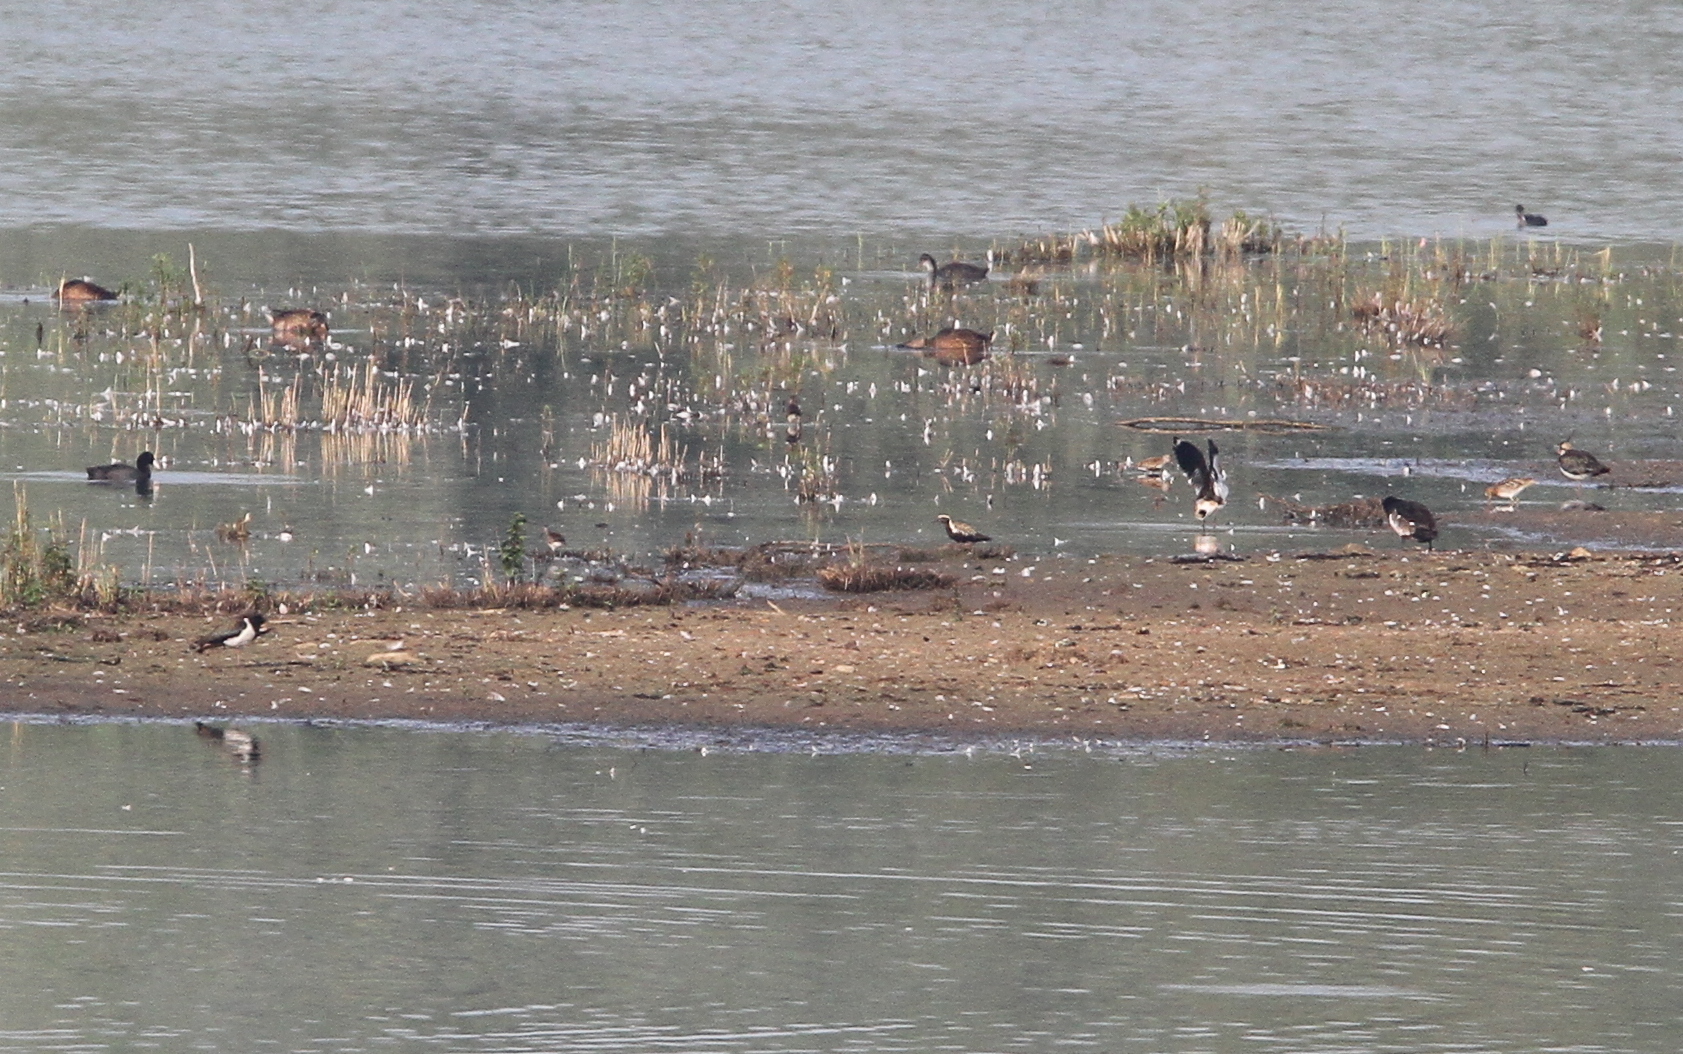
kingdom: Animalia
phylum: Chordata
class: Aves
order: Charadriiformes
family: Charadriidae
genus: Pluvialis
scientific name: Pluvialis fulva
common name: Pacific golden plover
